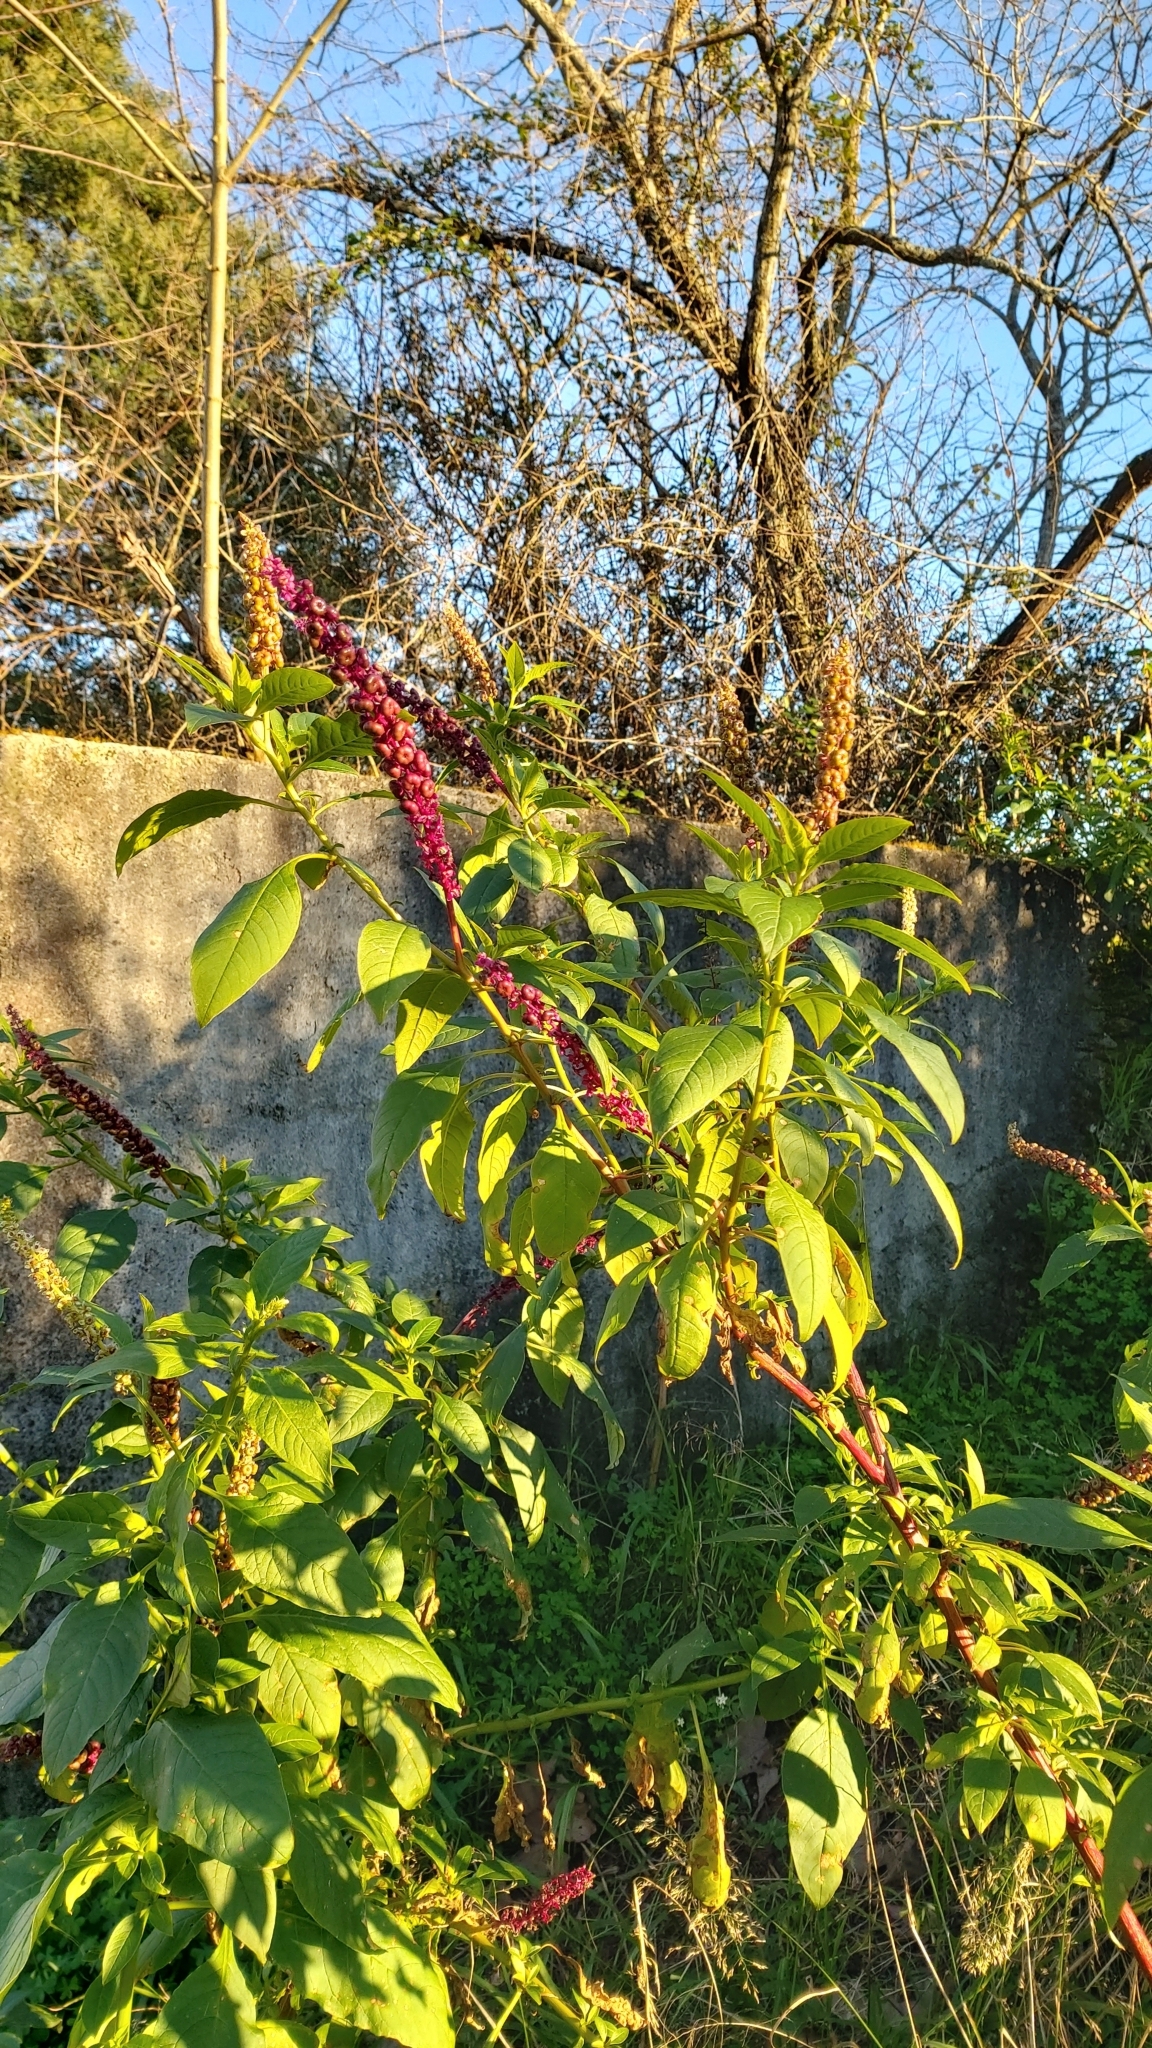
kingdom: Plantae
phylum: Tracheophyta
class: Magnoliopsida
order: Caryophyllales
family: Phytolaccaceae
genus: Phytolacca
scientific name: Phytolacca heterotepala
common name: Mexican pokeweed
